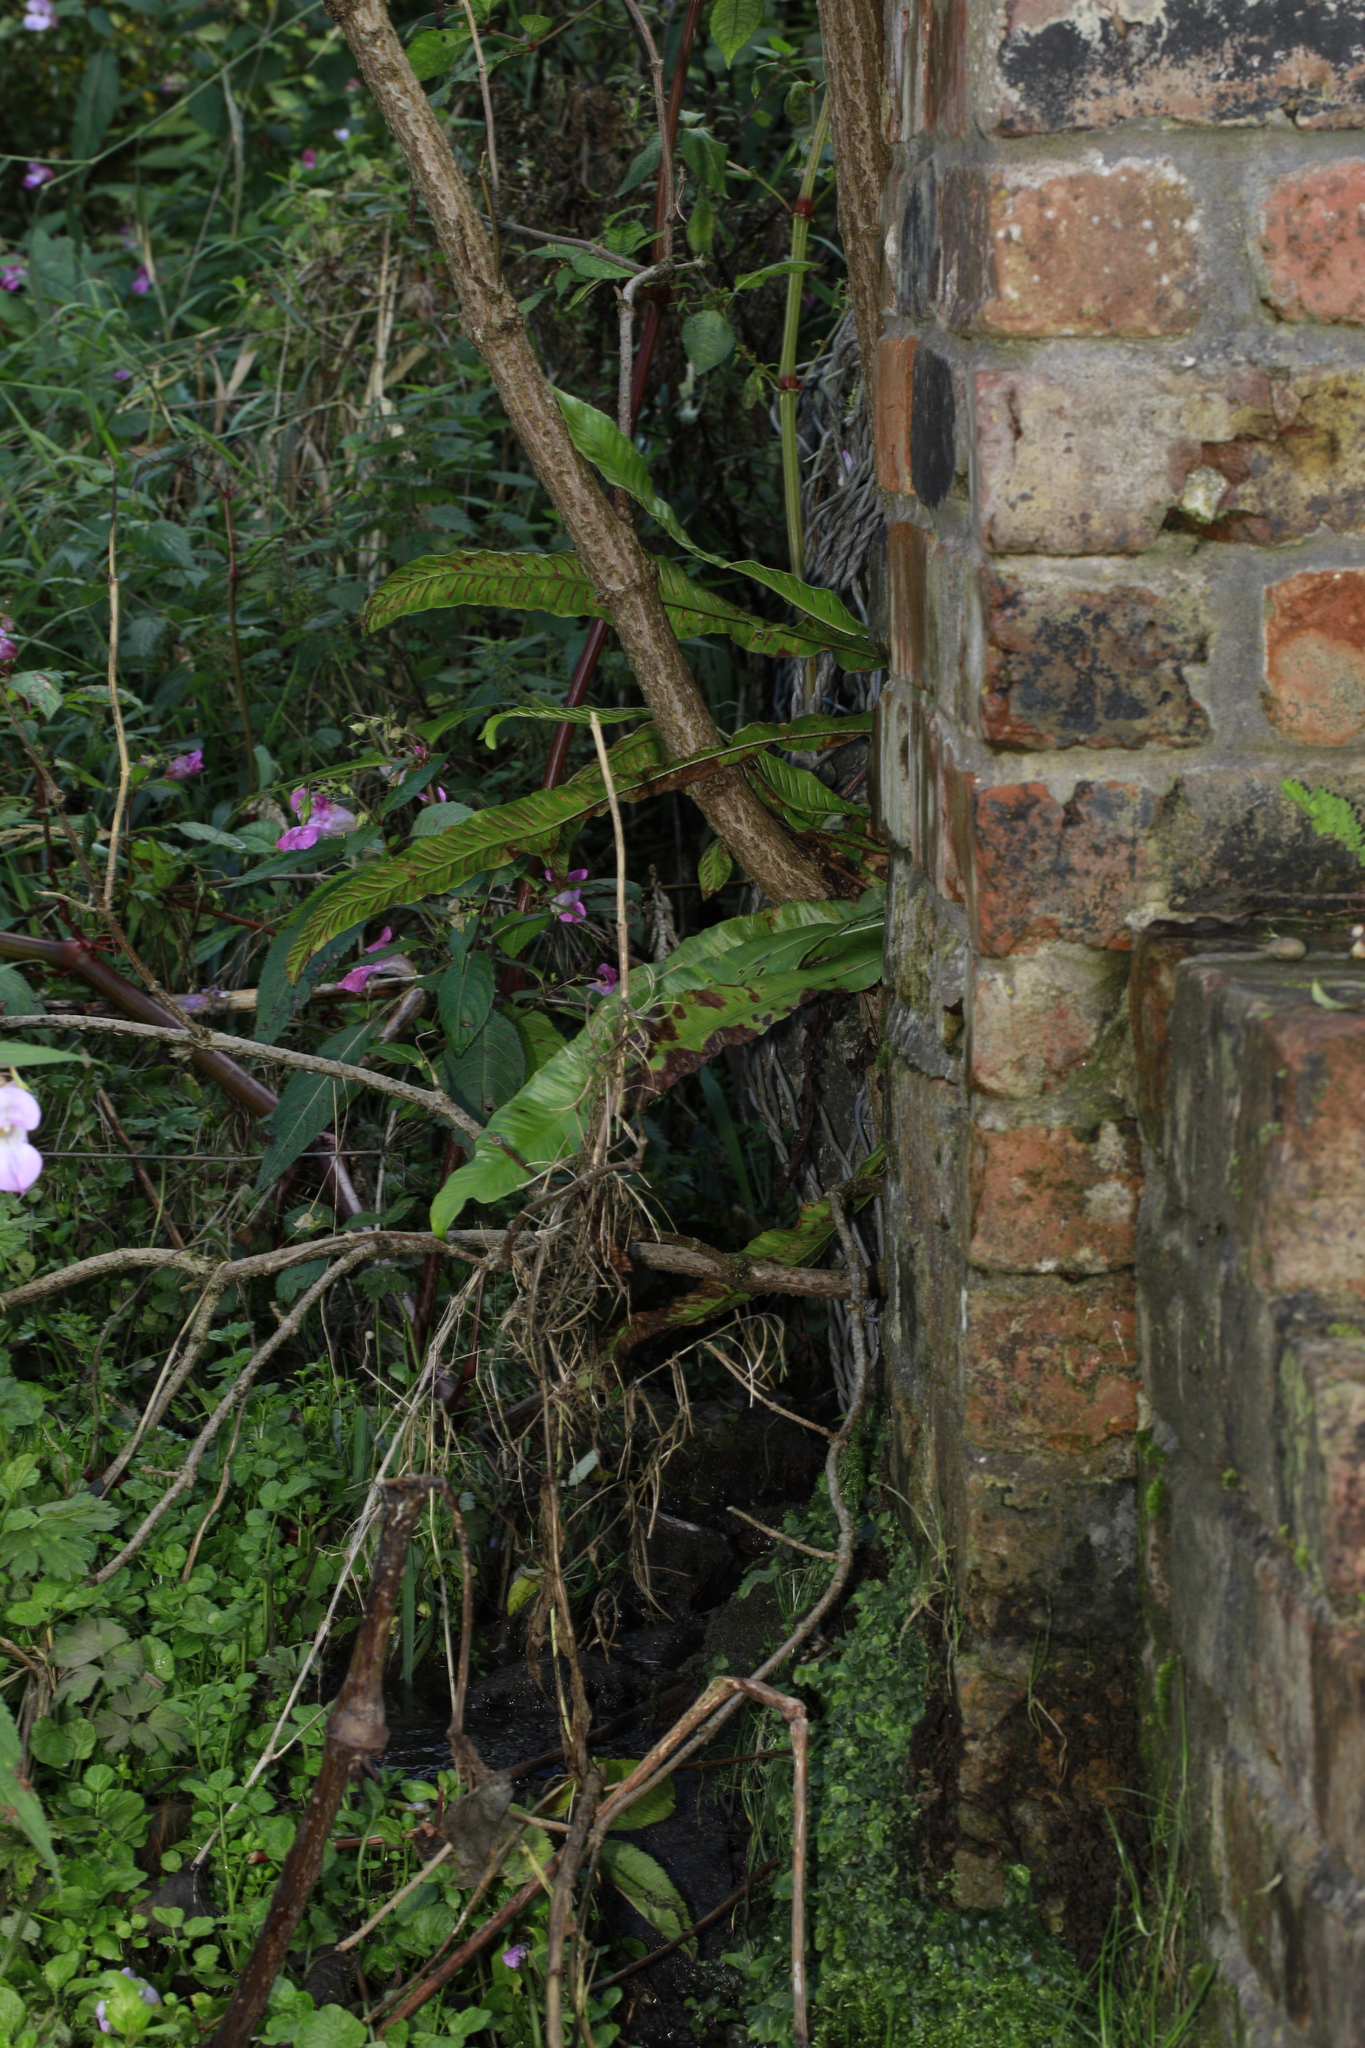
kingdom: Plantae
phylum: Tracheophyta
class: Polypodiopsida
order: Polypodiales
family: Aspleniaceae
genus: Asplenium
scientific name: Asplenium scolopendrium
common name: Hart's-tongue fern
